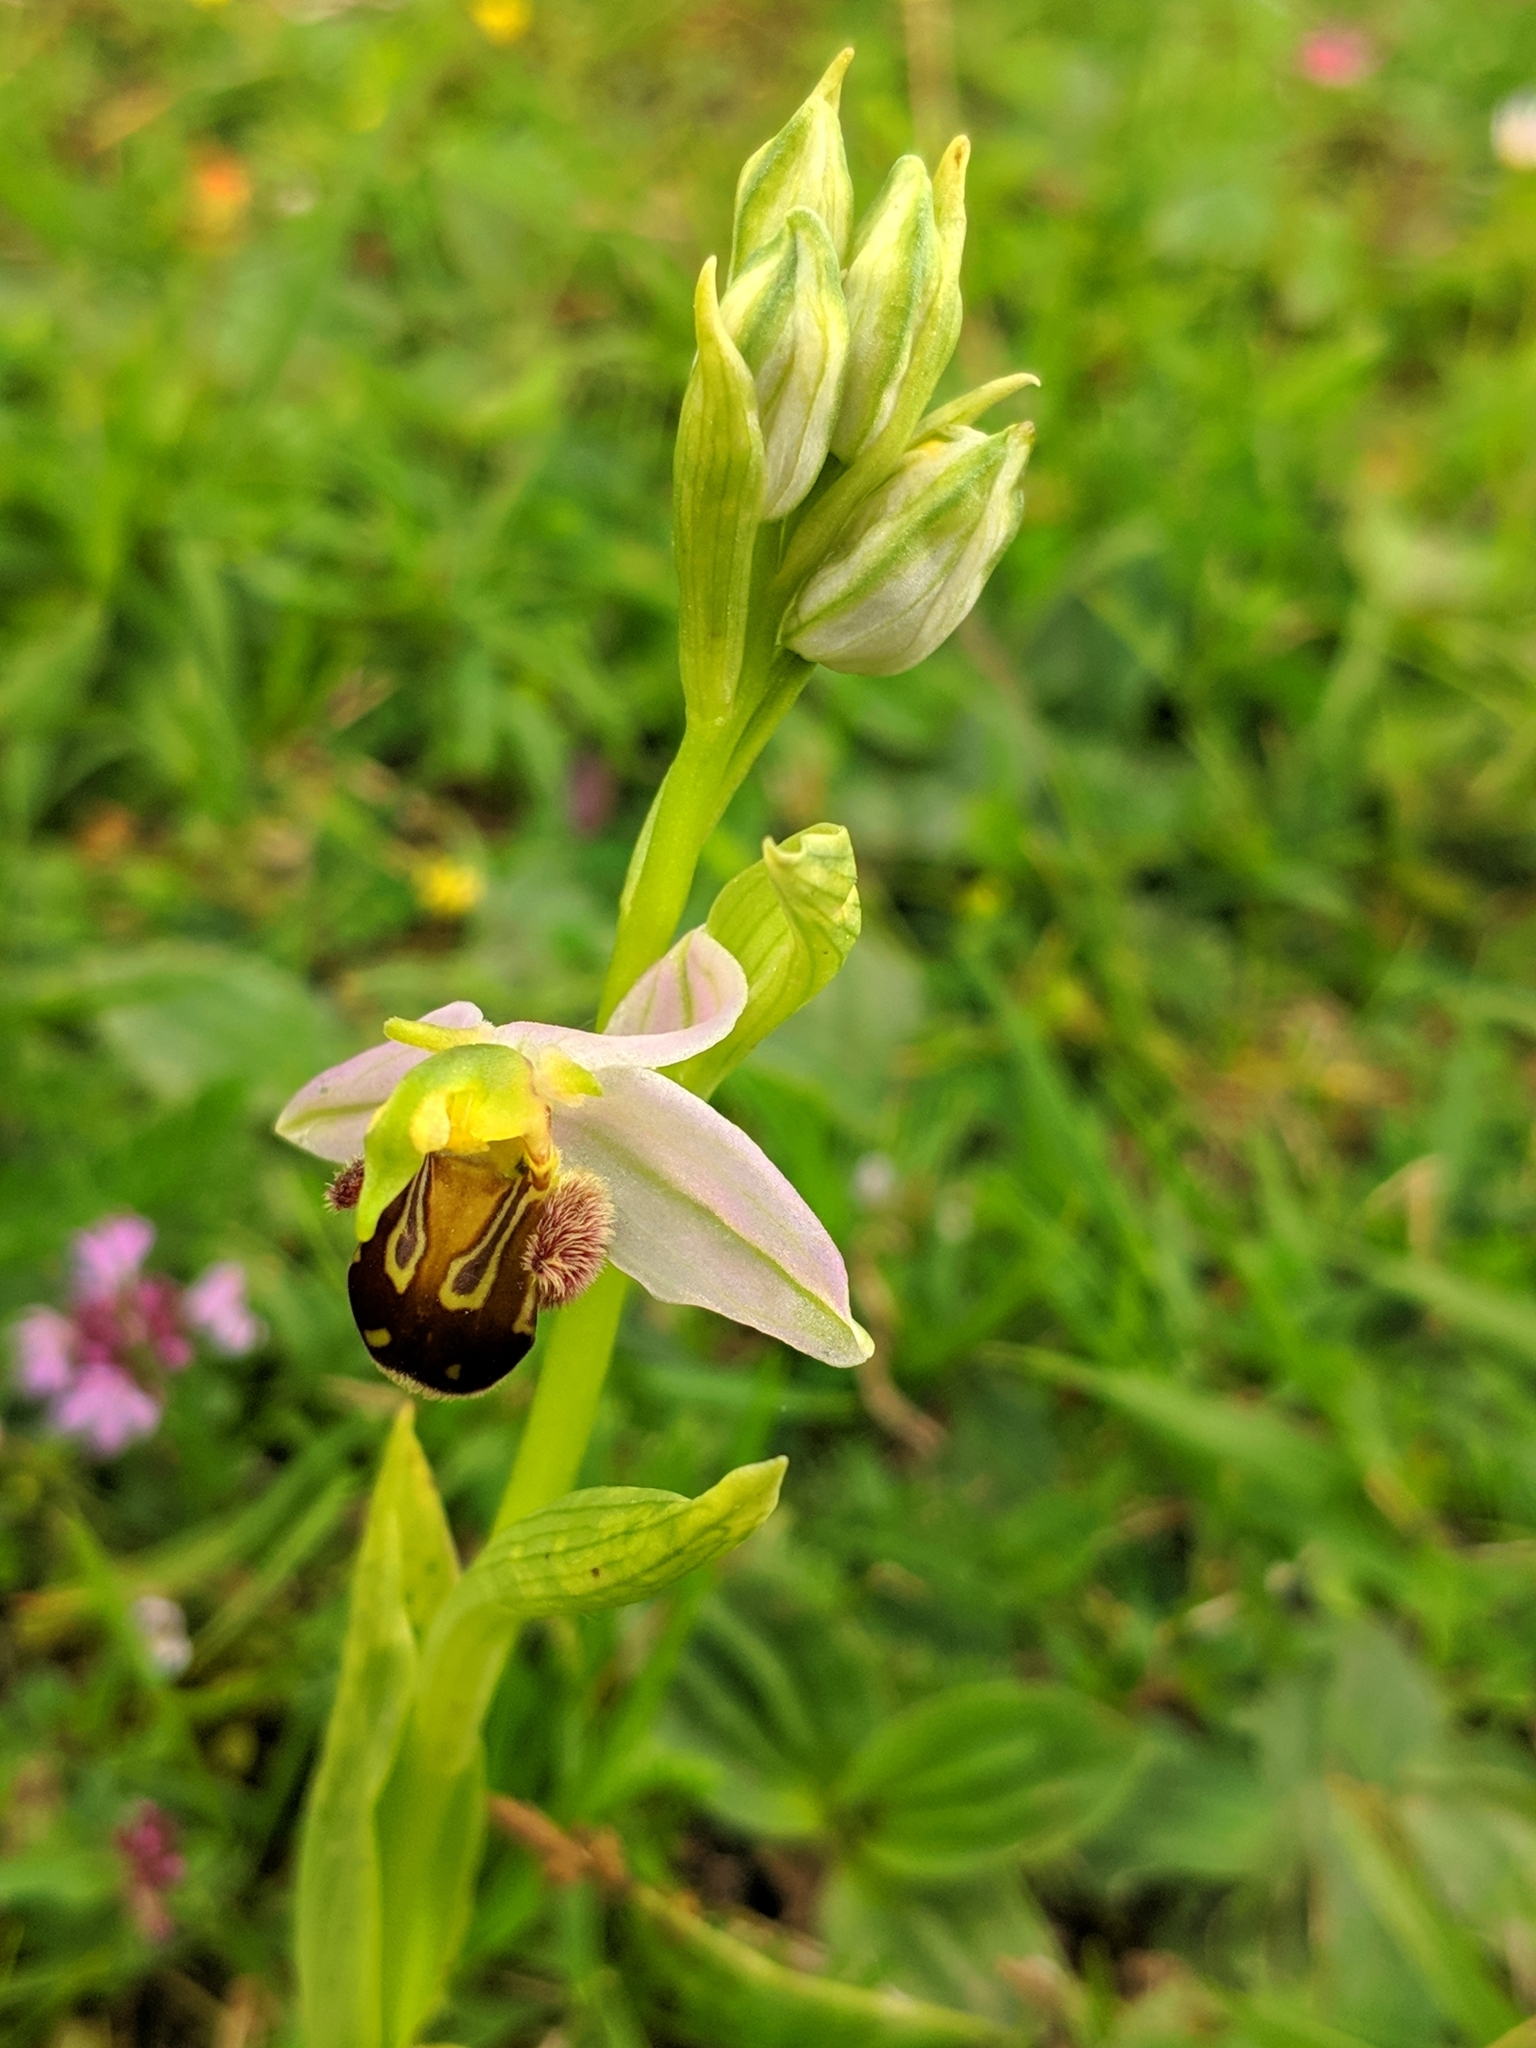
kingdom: Plantae
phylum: Tracheophyta
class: Liliopsida
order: Asparagales
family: Orchidaceae
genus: Ophrys
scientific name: Ophrys apifera
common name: Bee orchid
